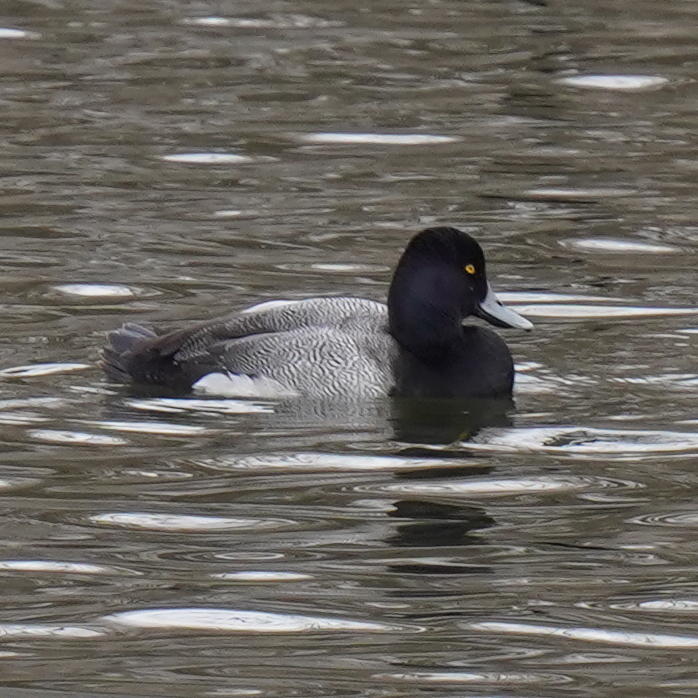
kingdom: Animalia
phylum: Chordata
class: Aves
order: Anseriformes
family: Anatidae
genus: Aythya
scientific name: Aythya affinis
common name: Lesser scaup
